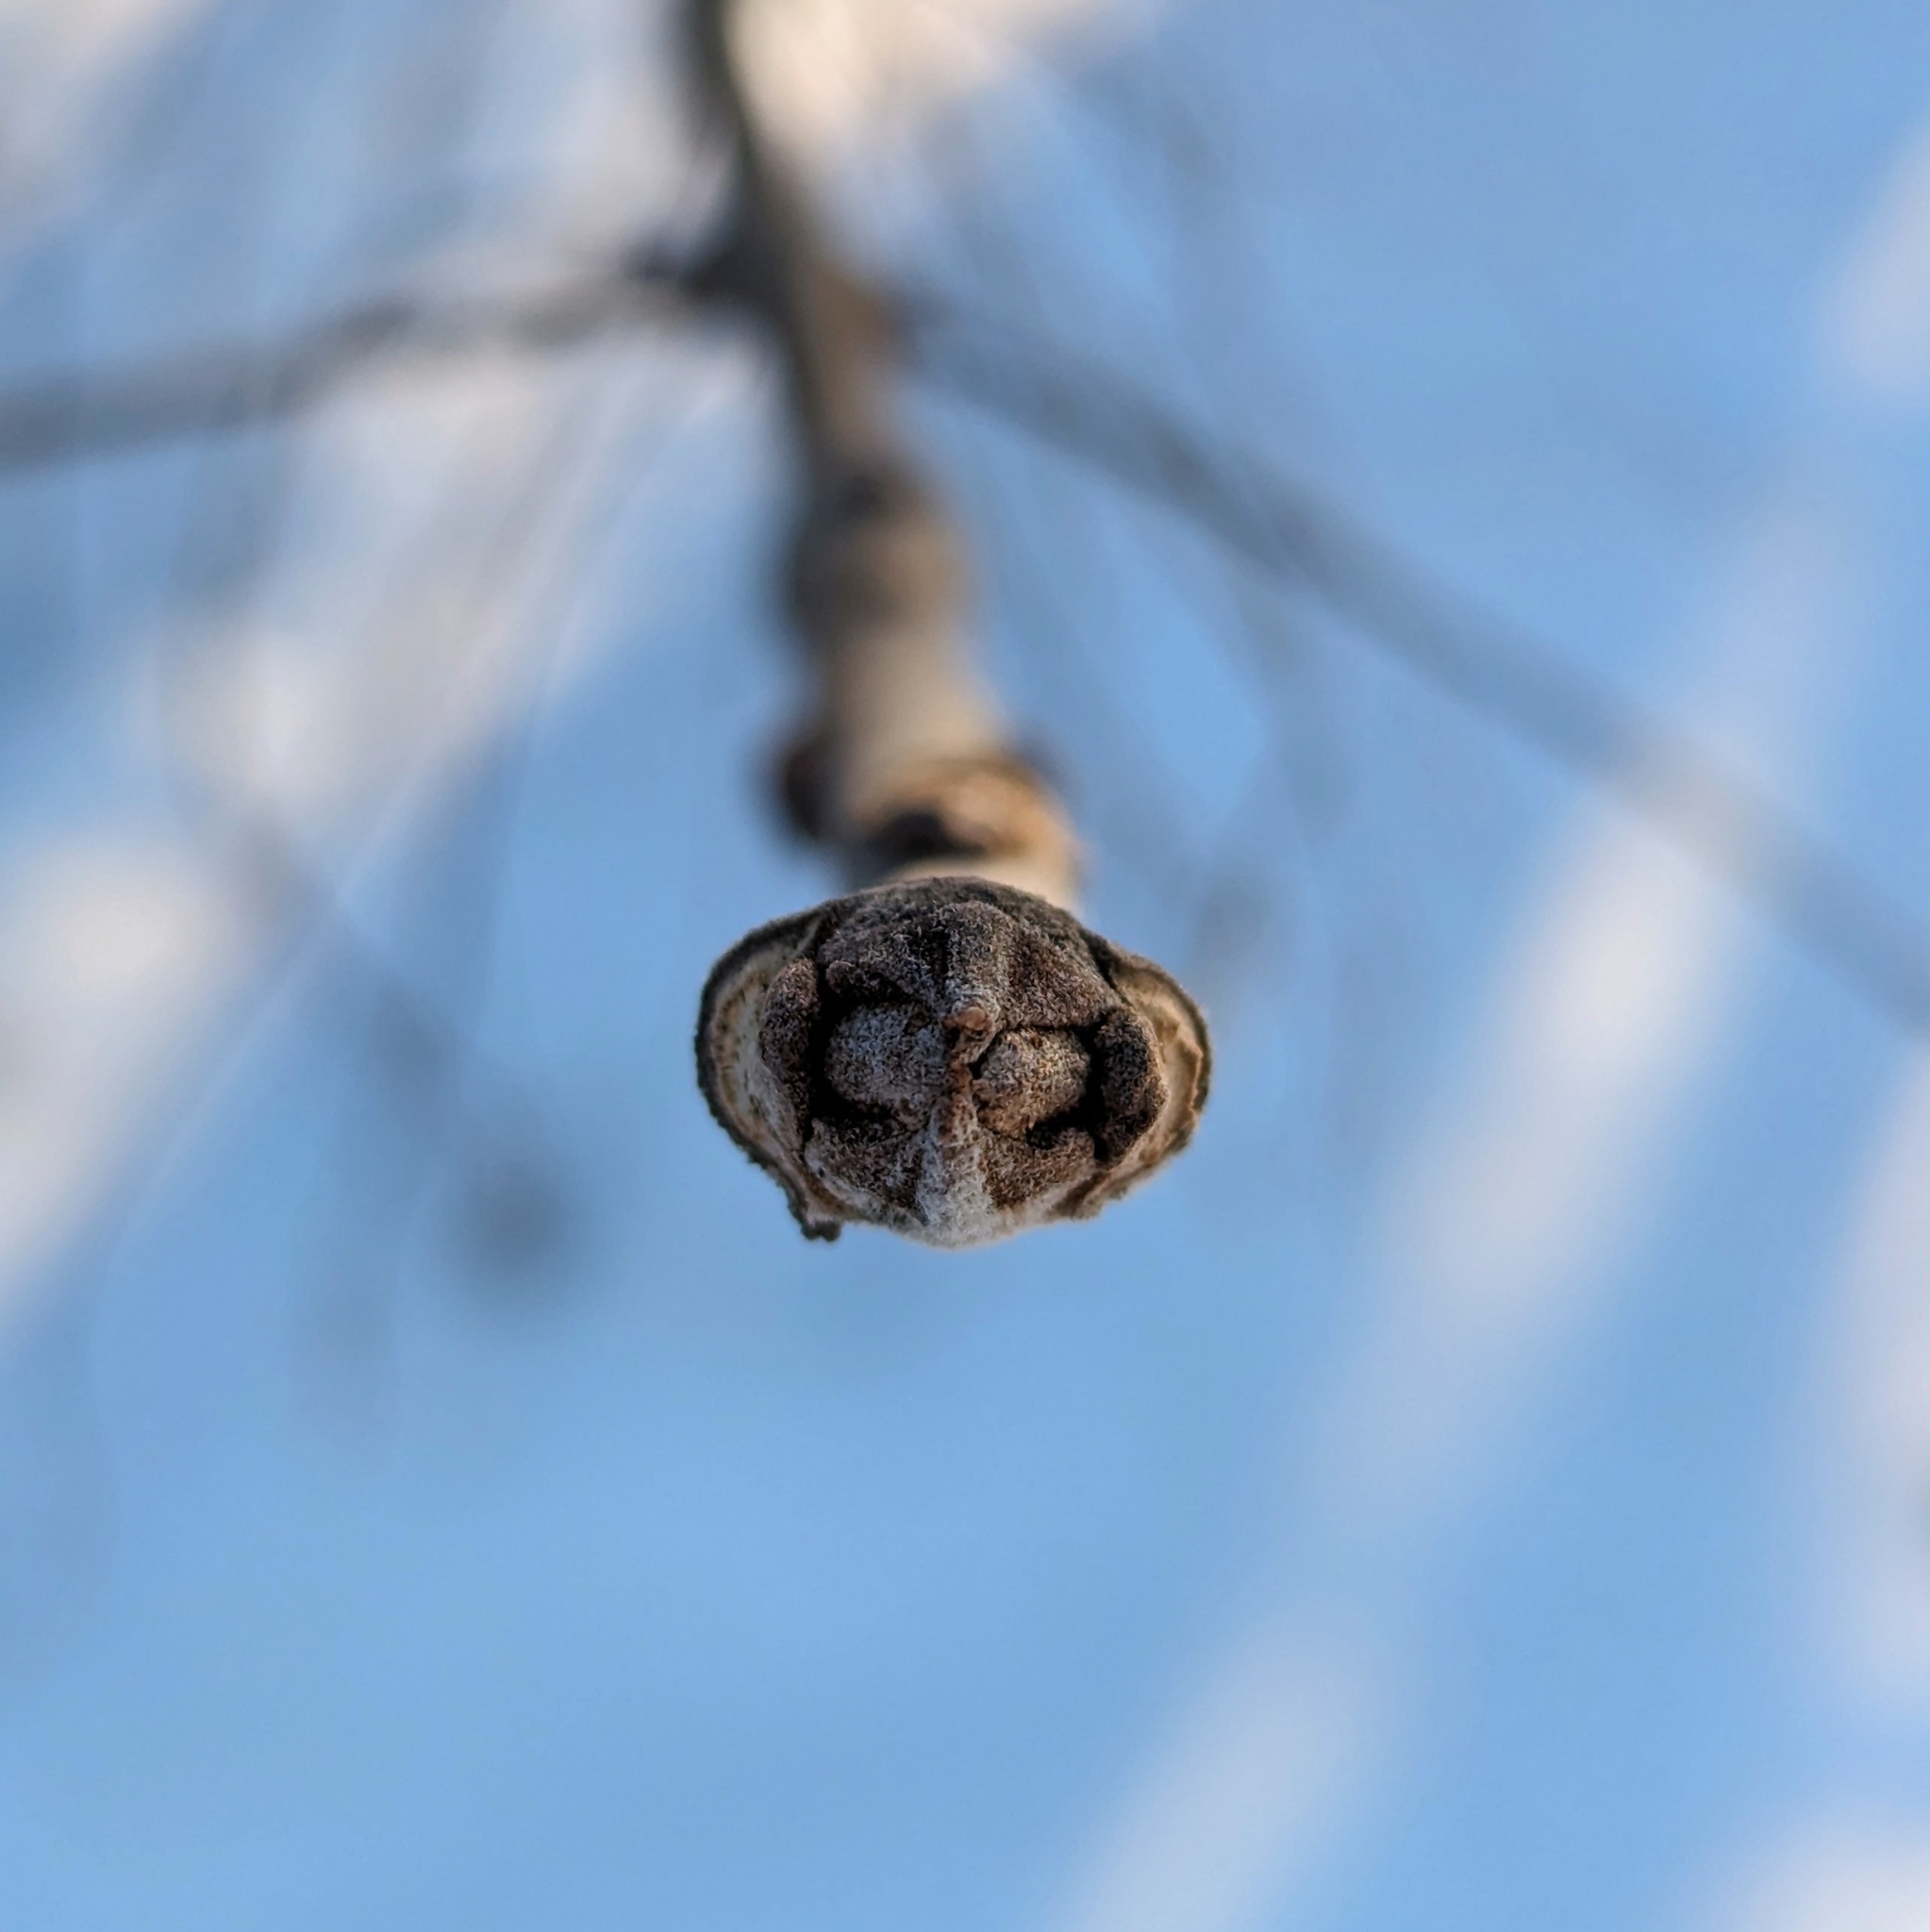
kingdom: Plantae
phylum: Tracheophyta
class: Magnoliopsida
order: Lamiales
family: Oleaceae
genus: Fraxinus
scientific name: Fraxinus pennsylvanica
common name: Green ash
